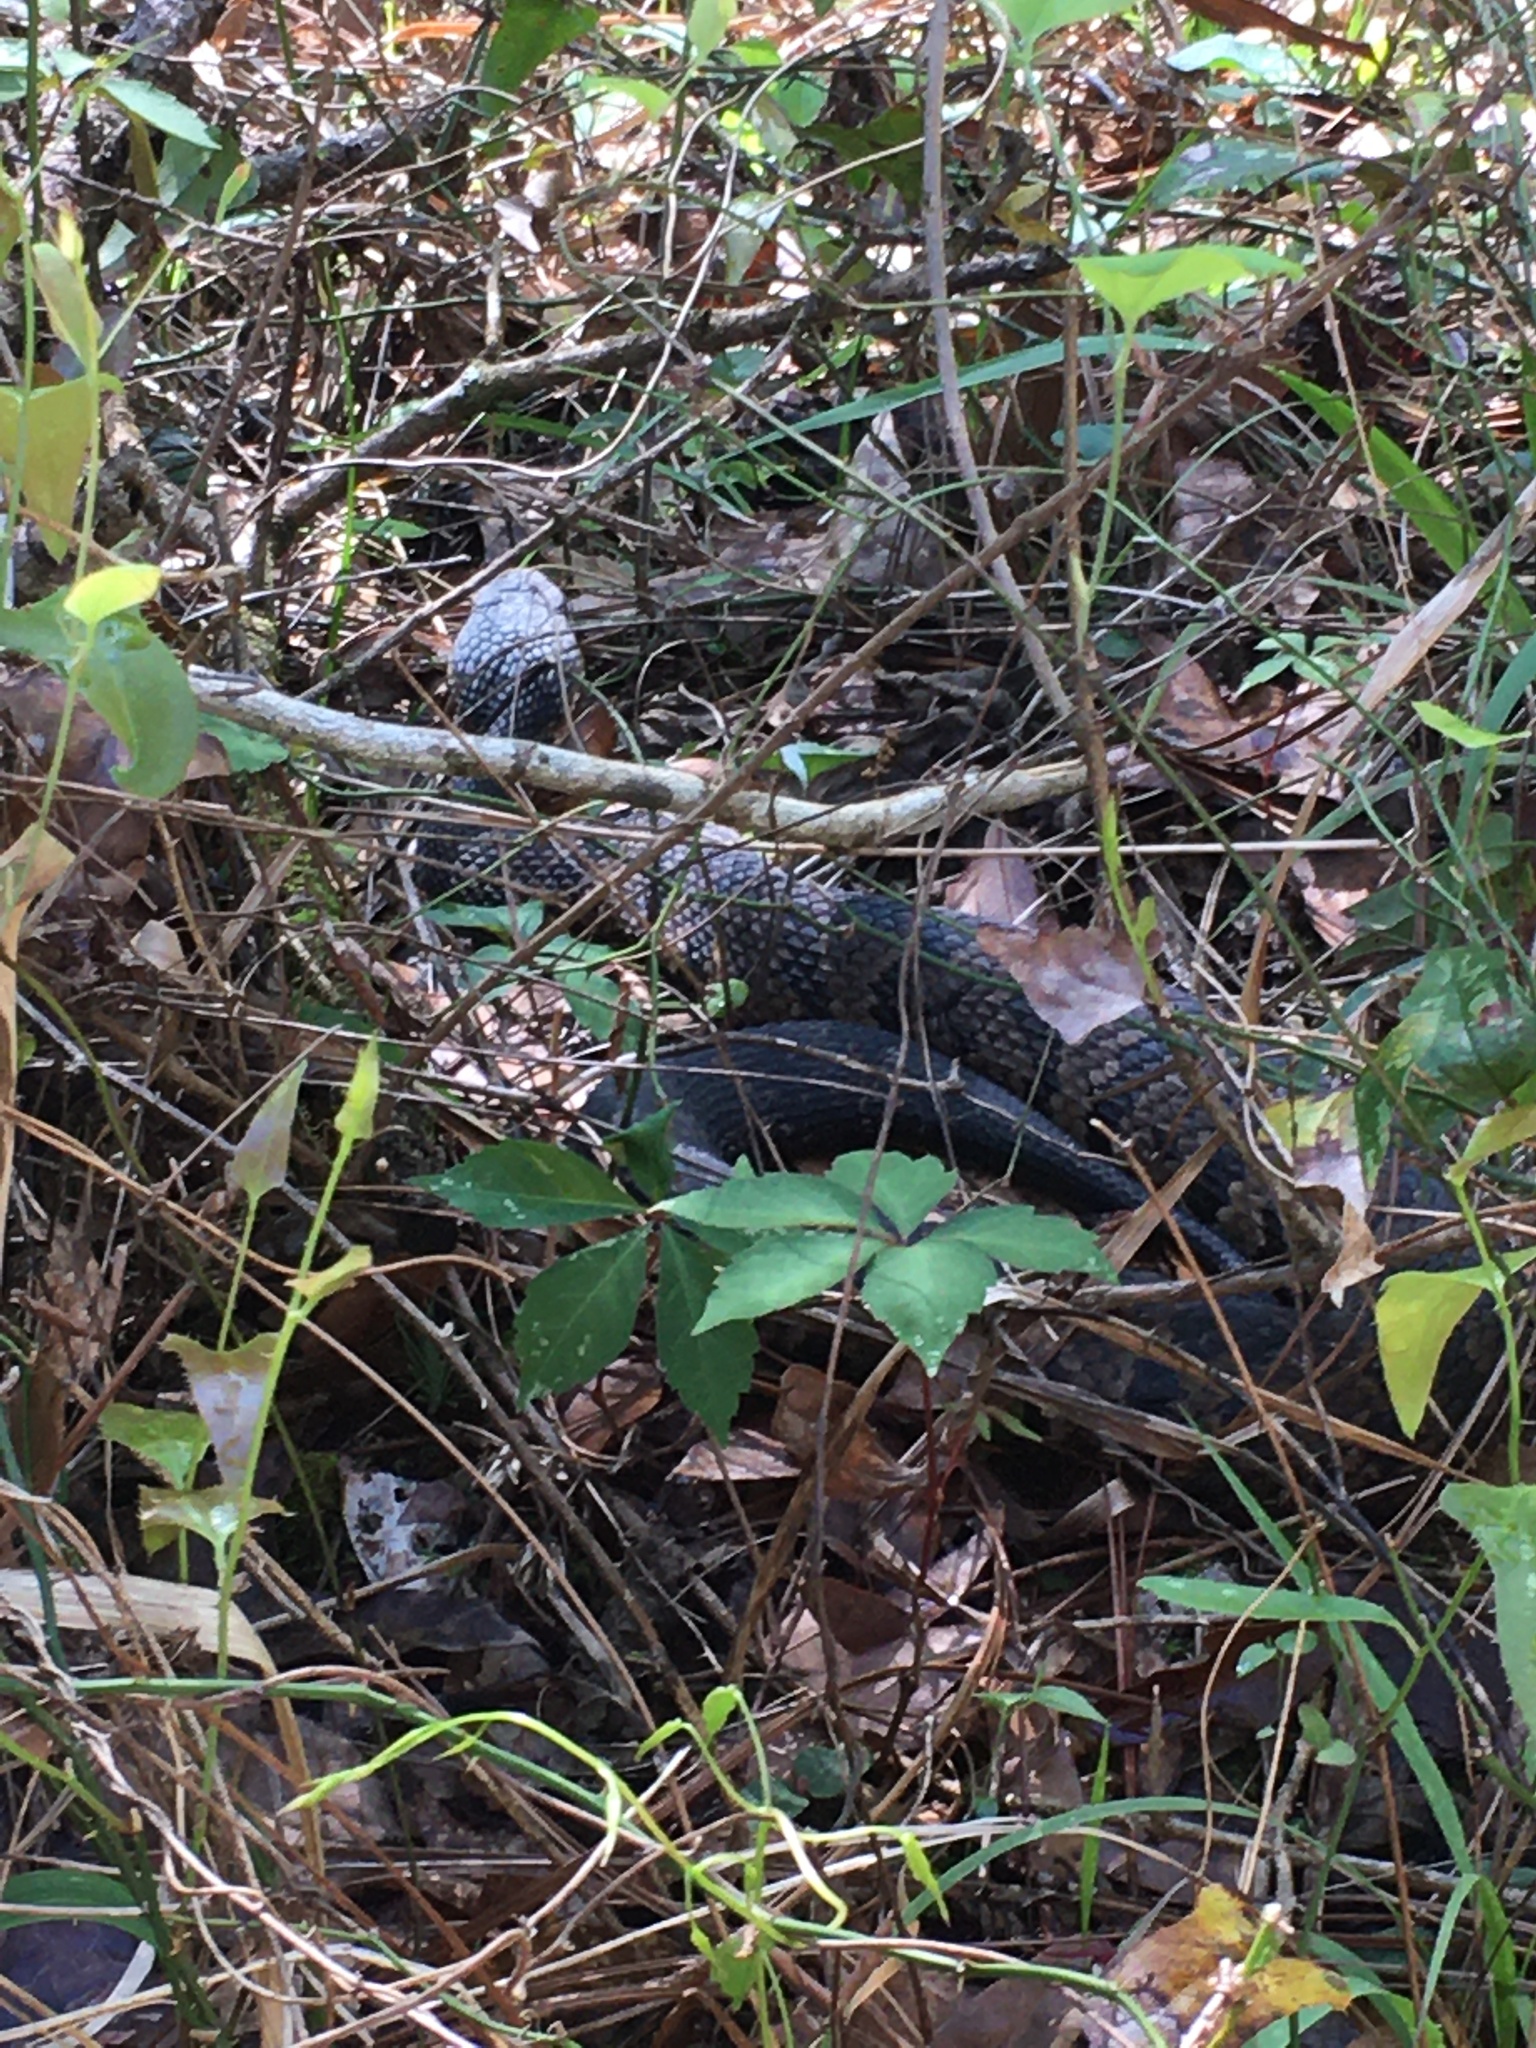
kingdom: Animalia
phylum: Chordata
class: Squamata
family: Viperidae
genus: Agkistrodon
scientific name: Agkistrodon
